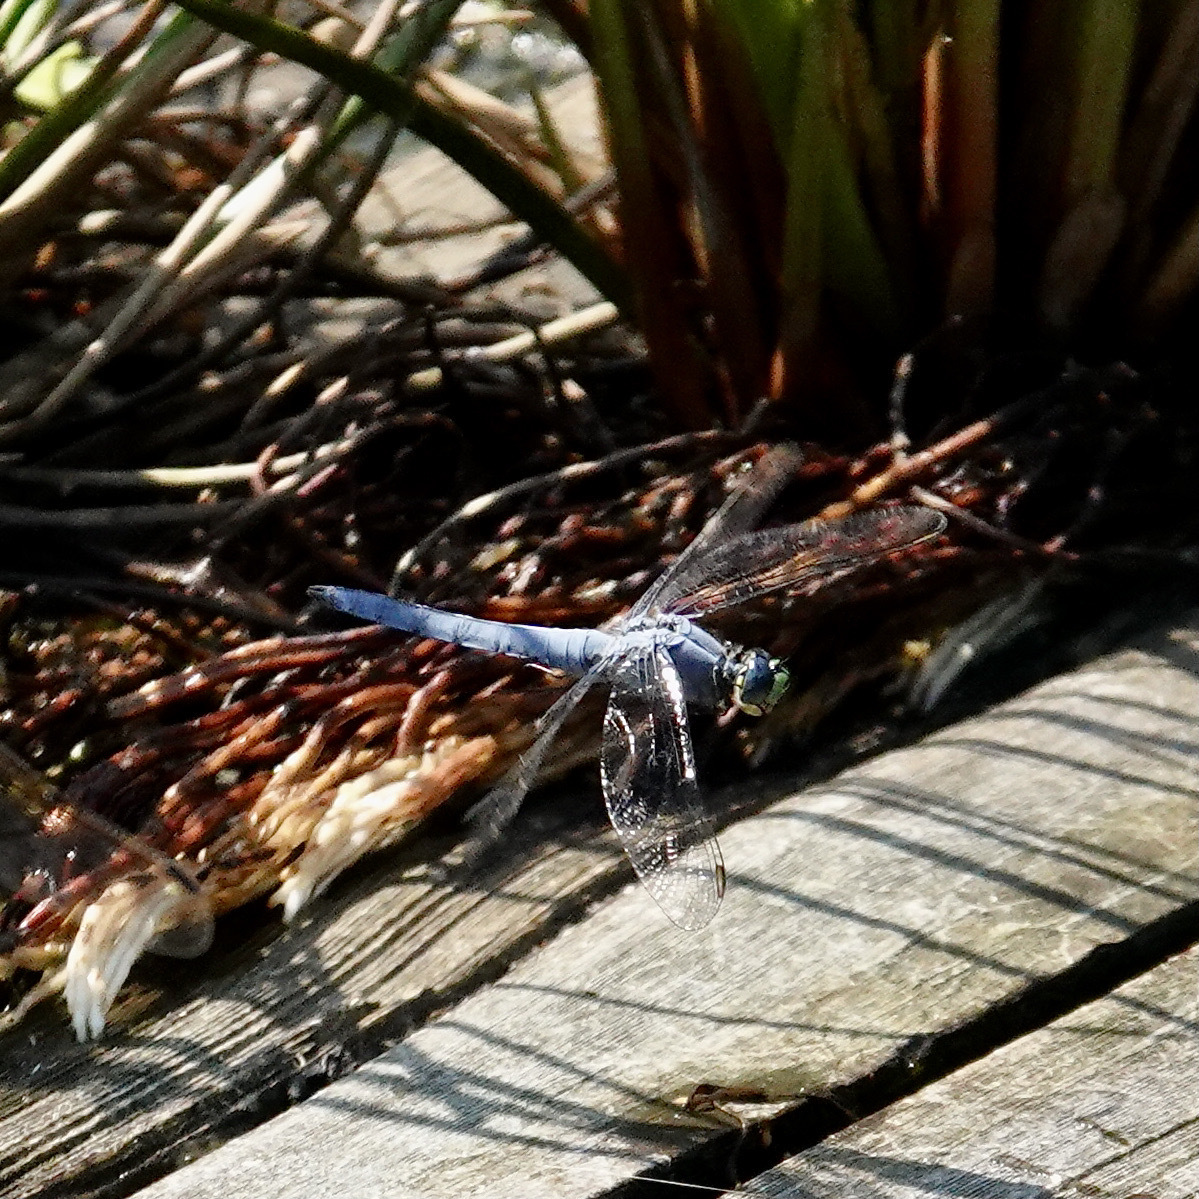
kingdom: Animalia
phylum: Arthropoda
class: Insecta
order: Odonata
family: Libellulidae
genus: Pachydiplax
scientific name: Pachydiplax longipennis
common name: Blue dasher
